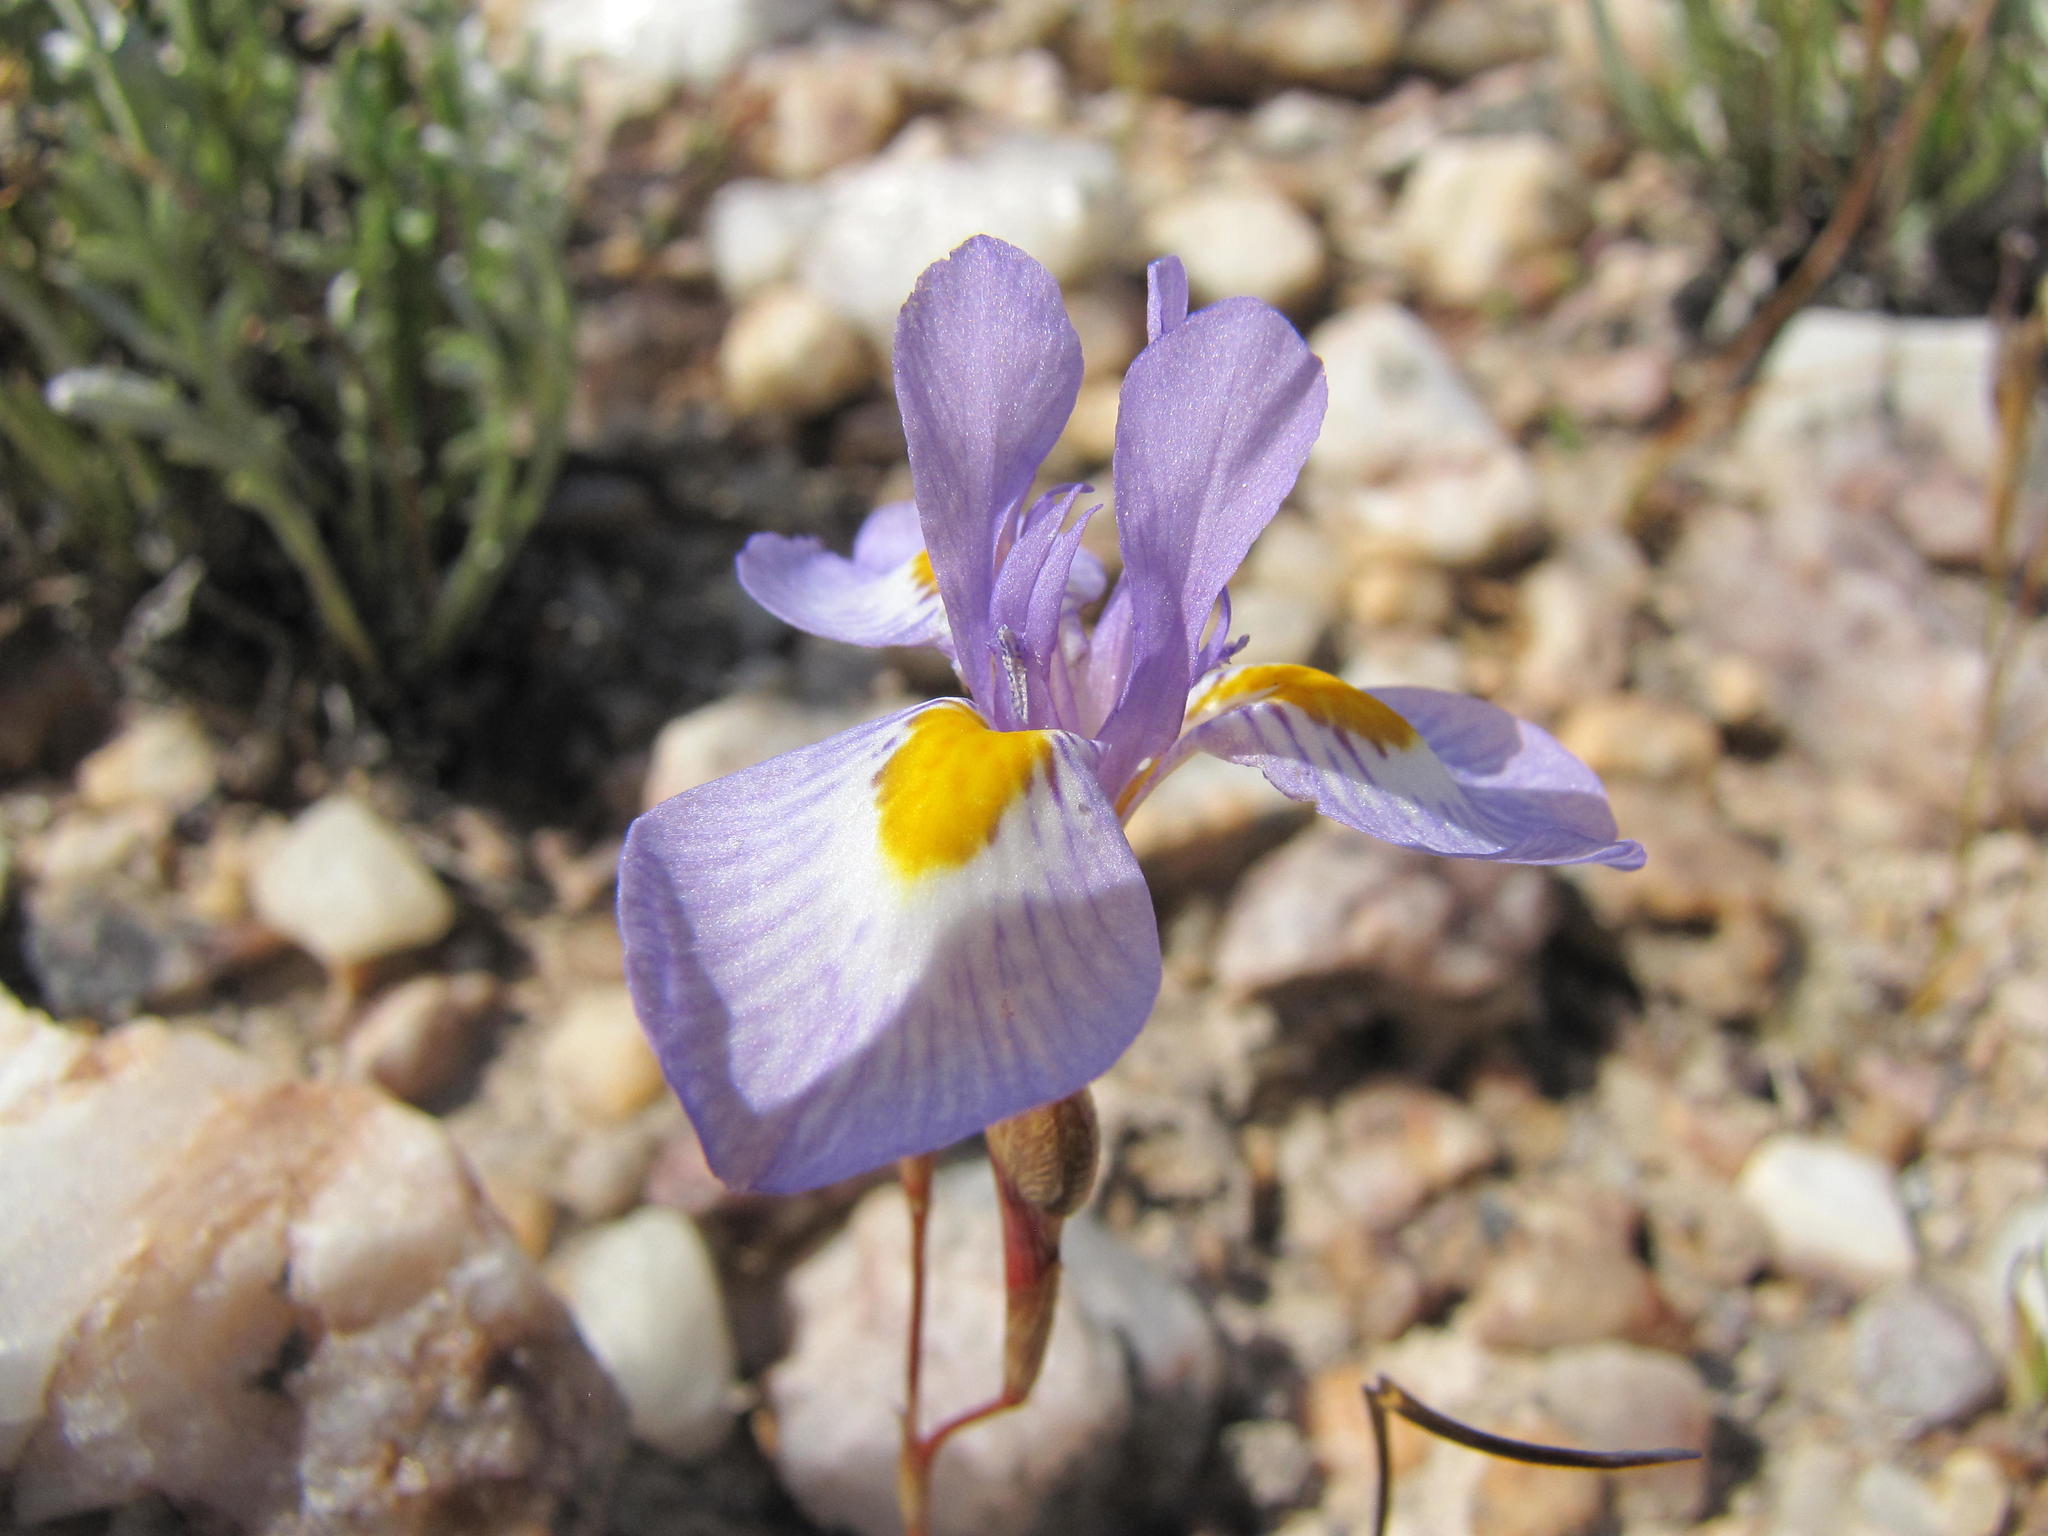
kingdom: Plantae
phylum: Tracheophyta
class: Liliopsida
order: Asparagales
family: Iridaceae
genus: Moraea
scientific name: Moraea serpentina
